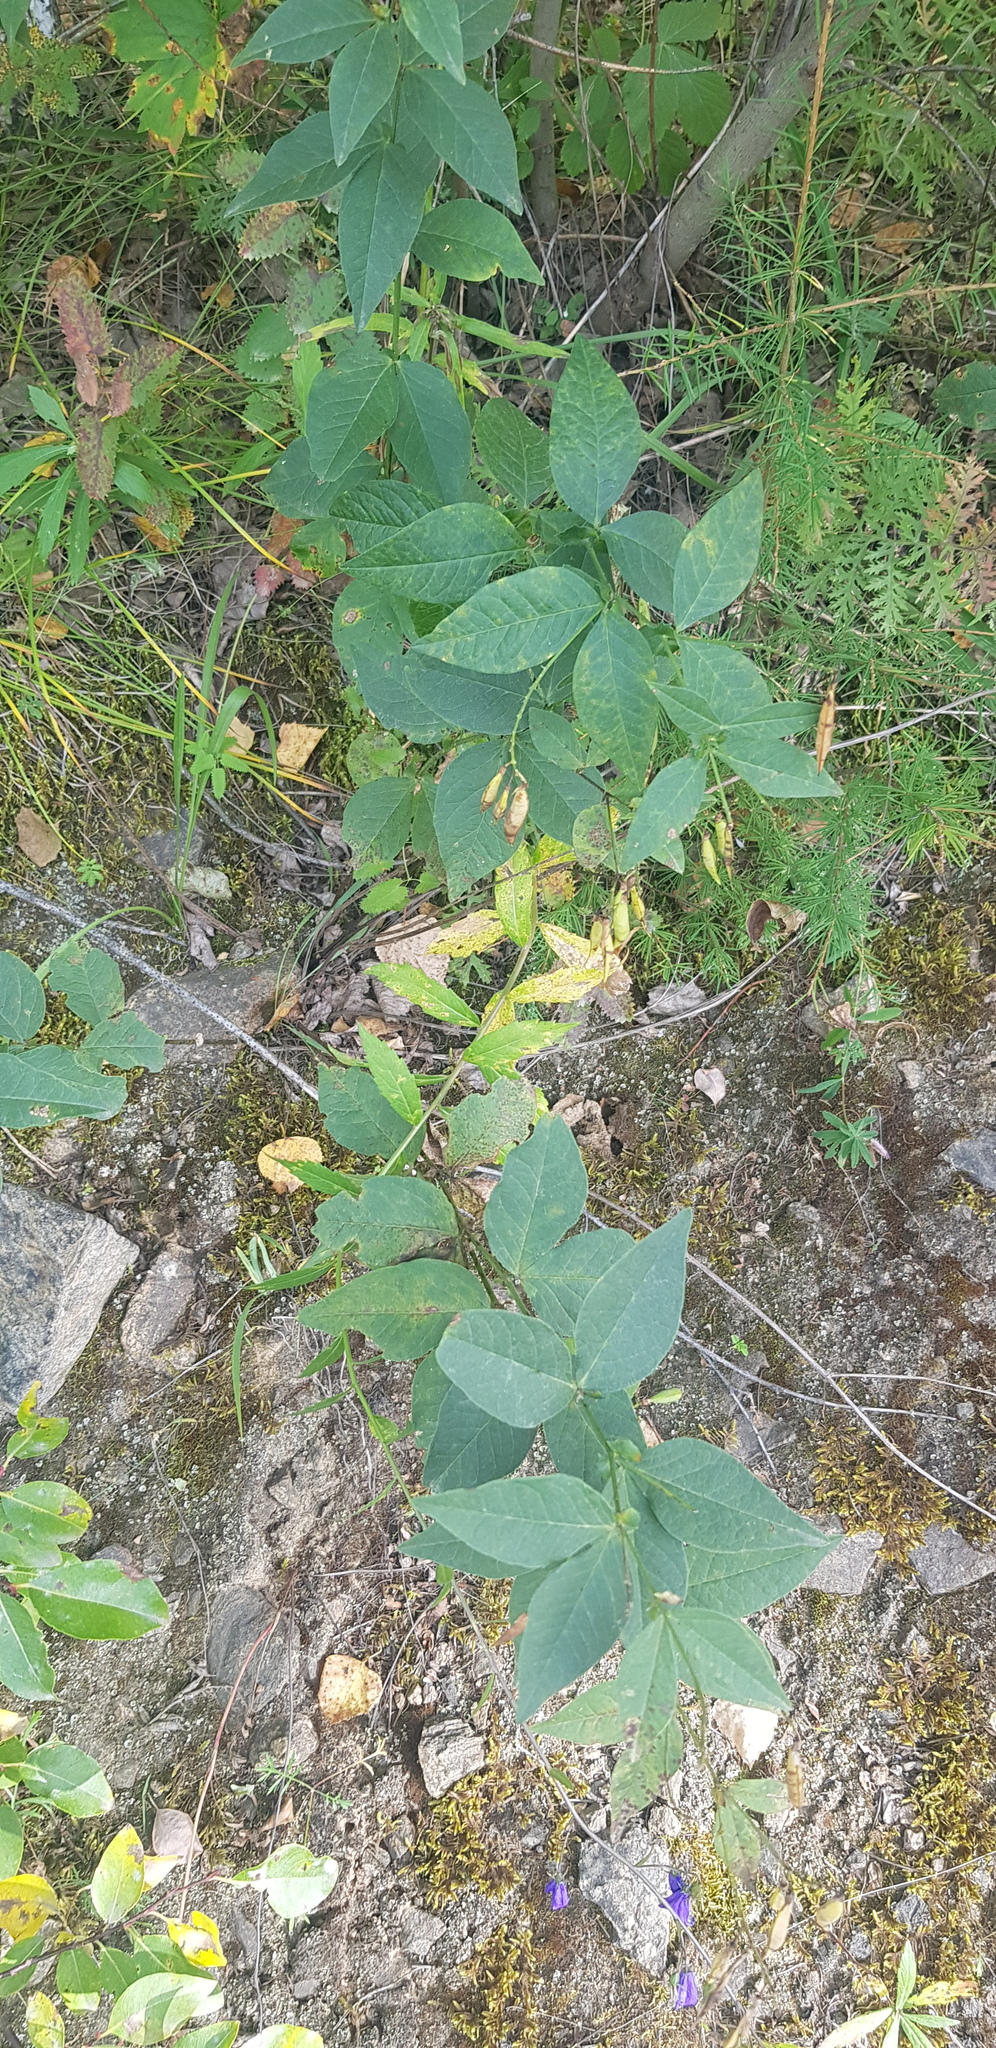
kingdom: Plantae
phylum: Tracheophyta
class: Magnoliopsida
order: Fabales
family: Fabaceae
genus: Vicia
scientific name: Vicia unijuga
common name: Two-leaf vetch
